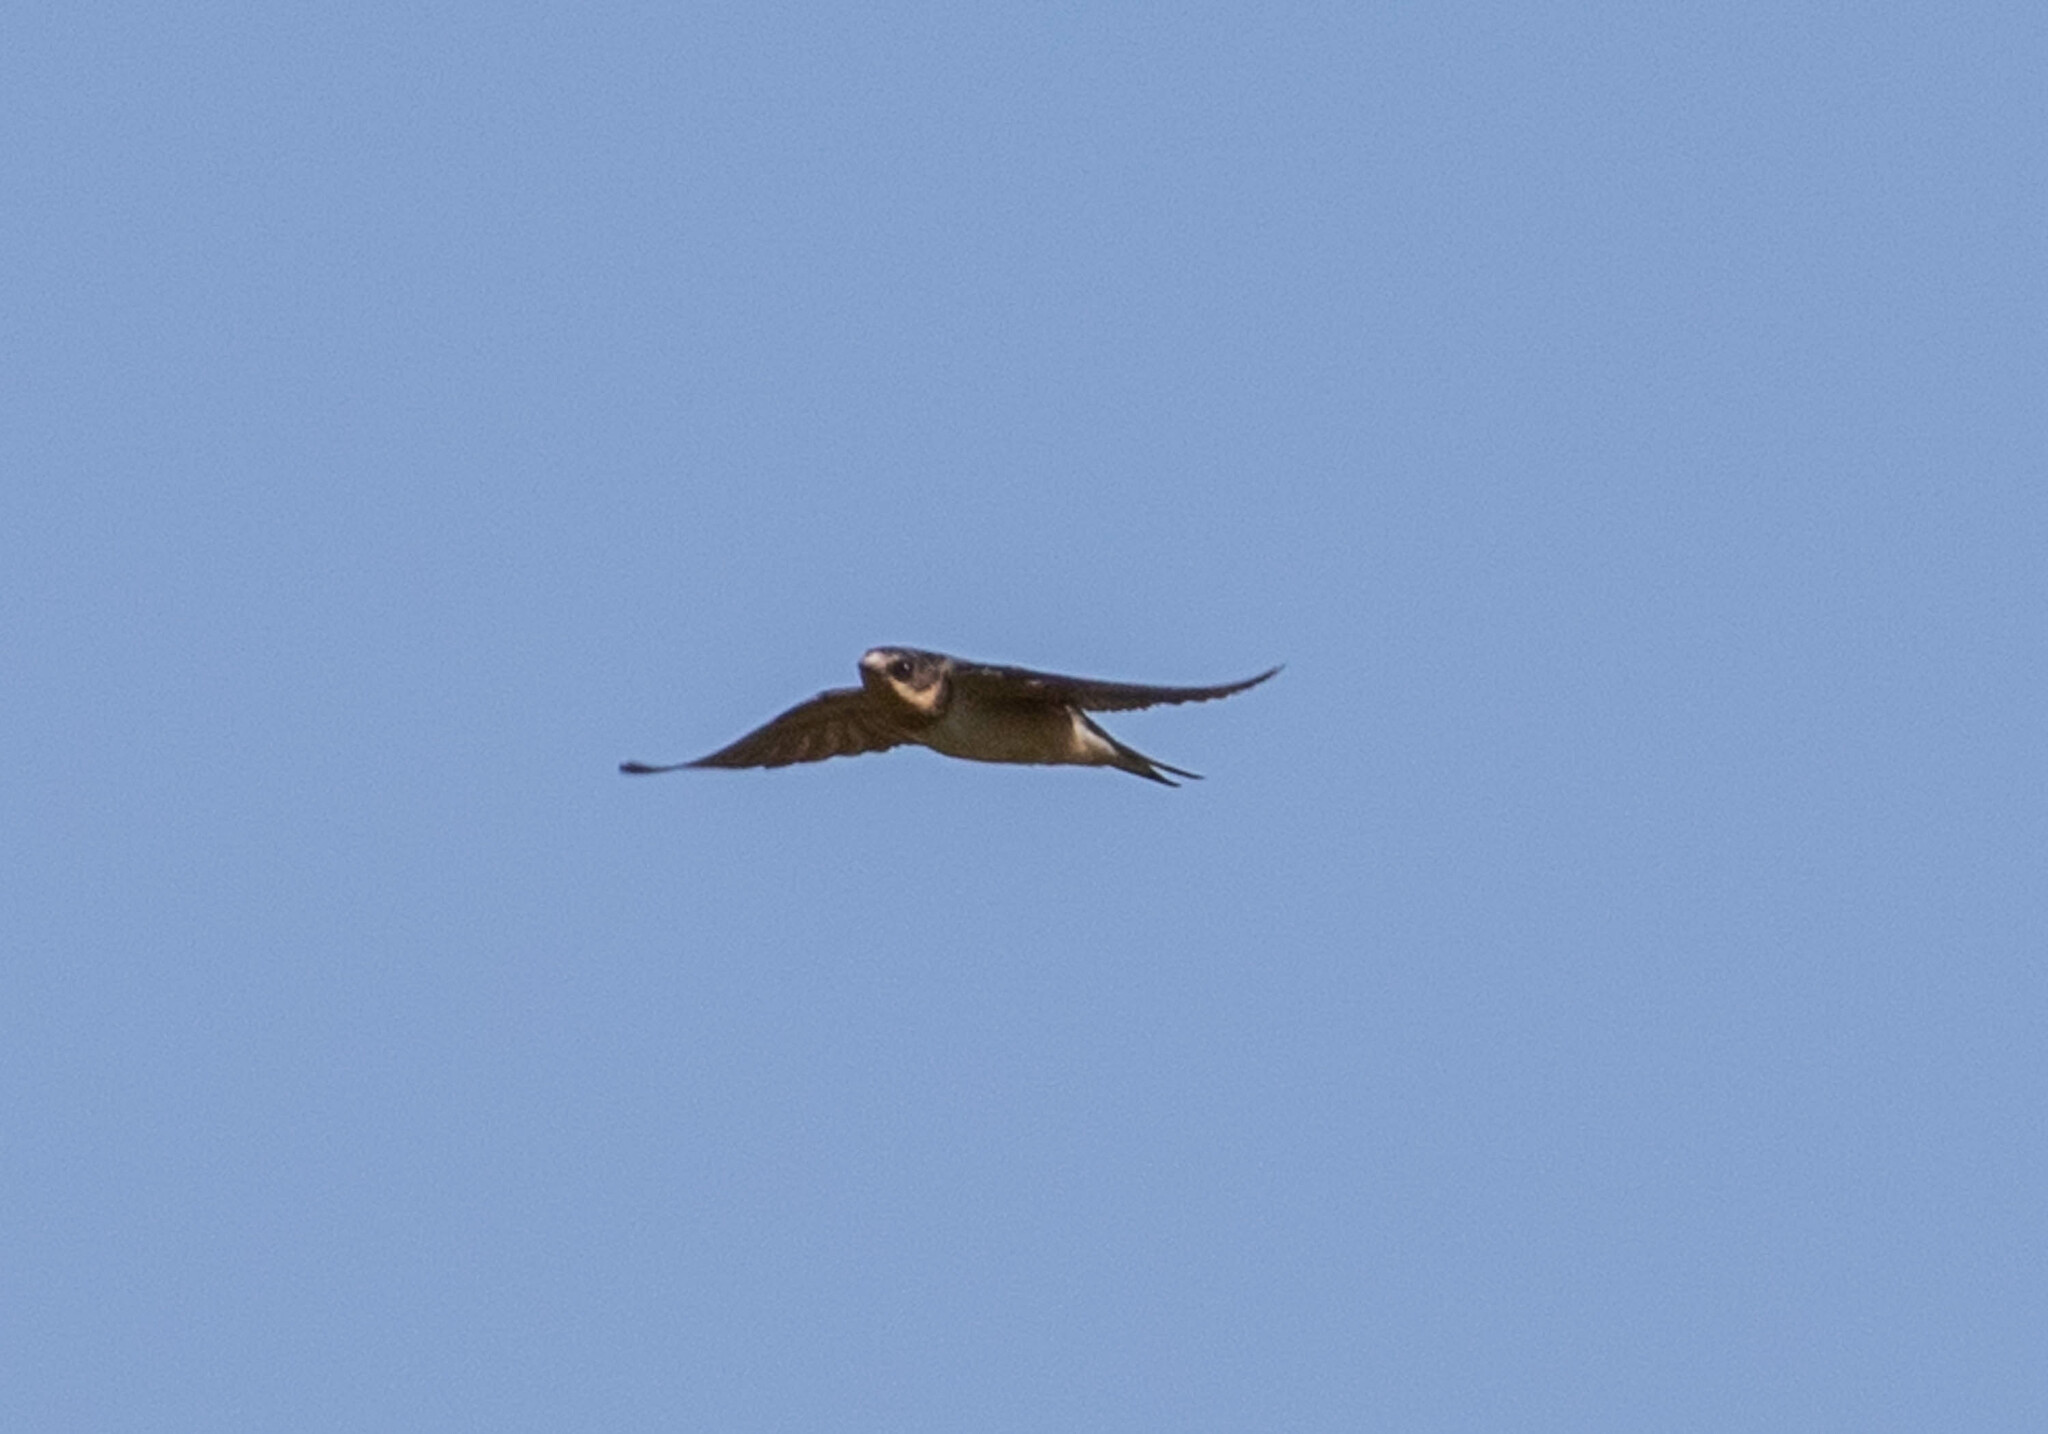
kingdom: Animalia
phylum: Chordata
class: Aves
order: Passeriformes
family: Hirundinidae
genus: Hirundo
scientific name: Hirundo rustica
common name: Barn swallow
